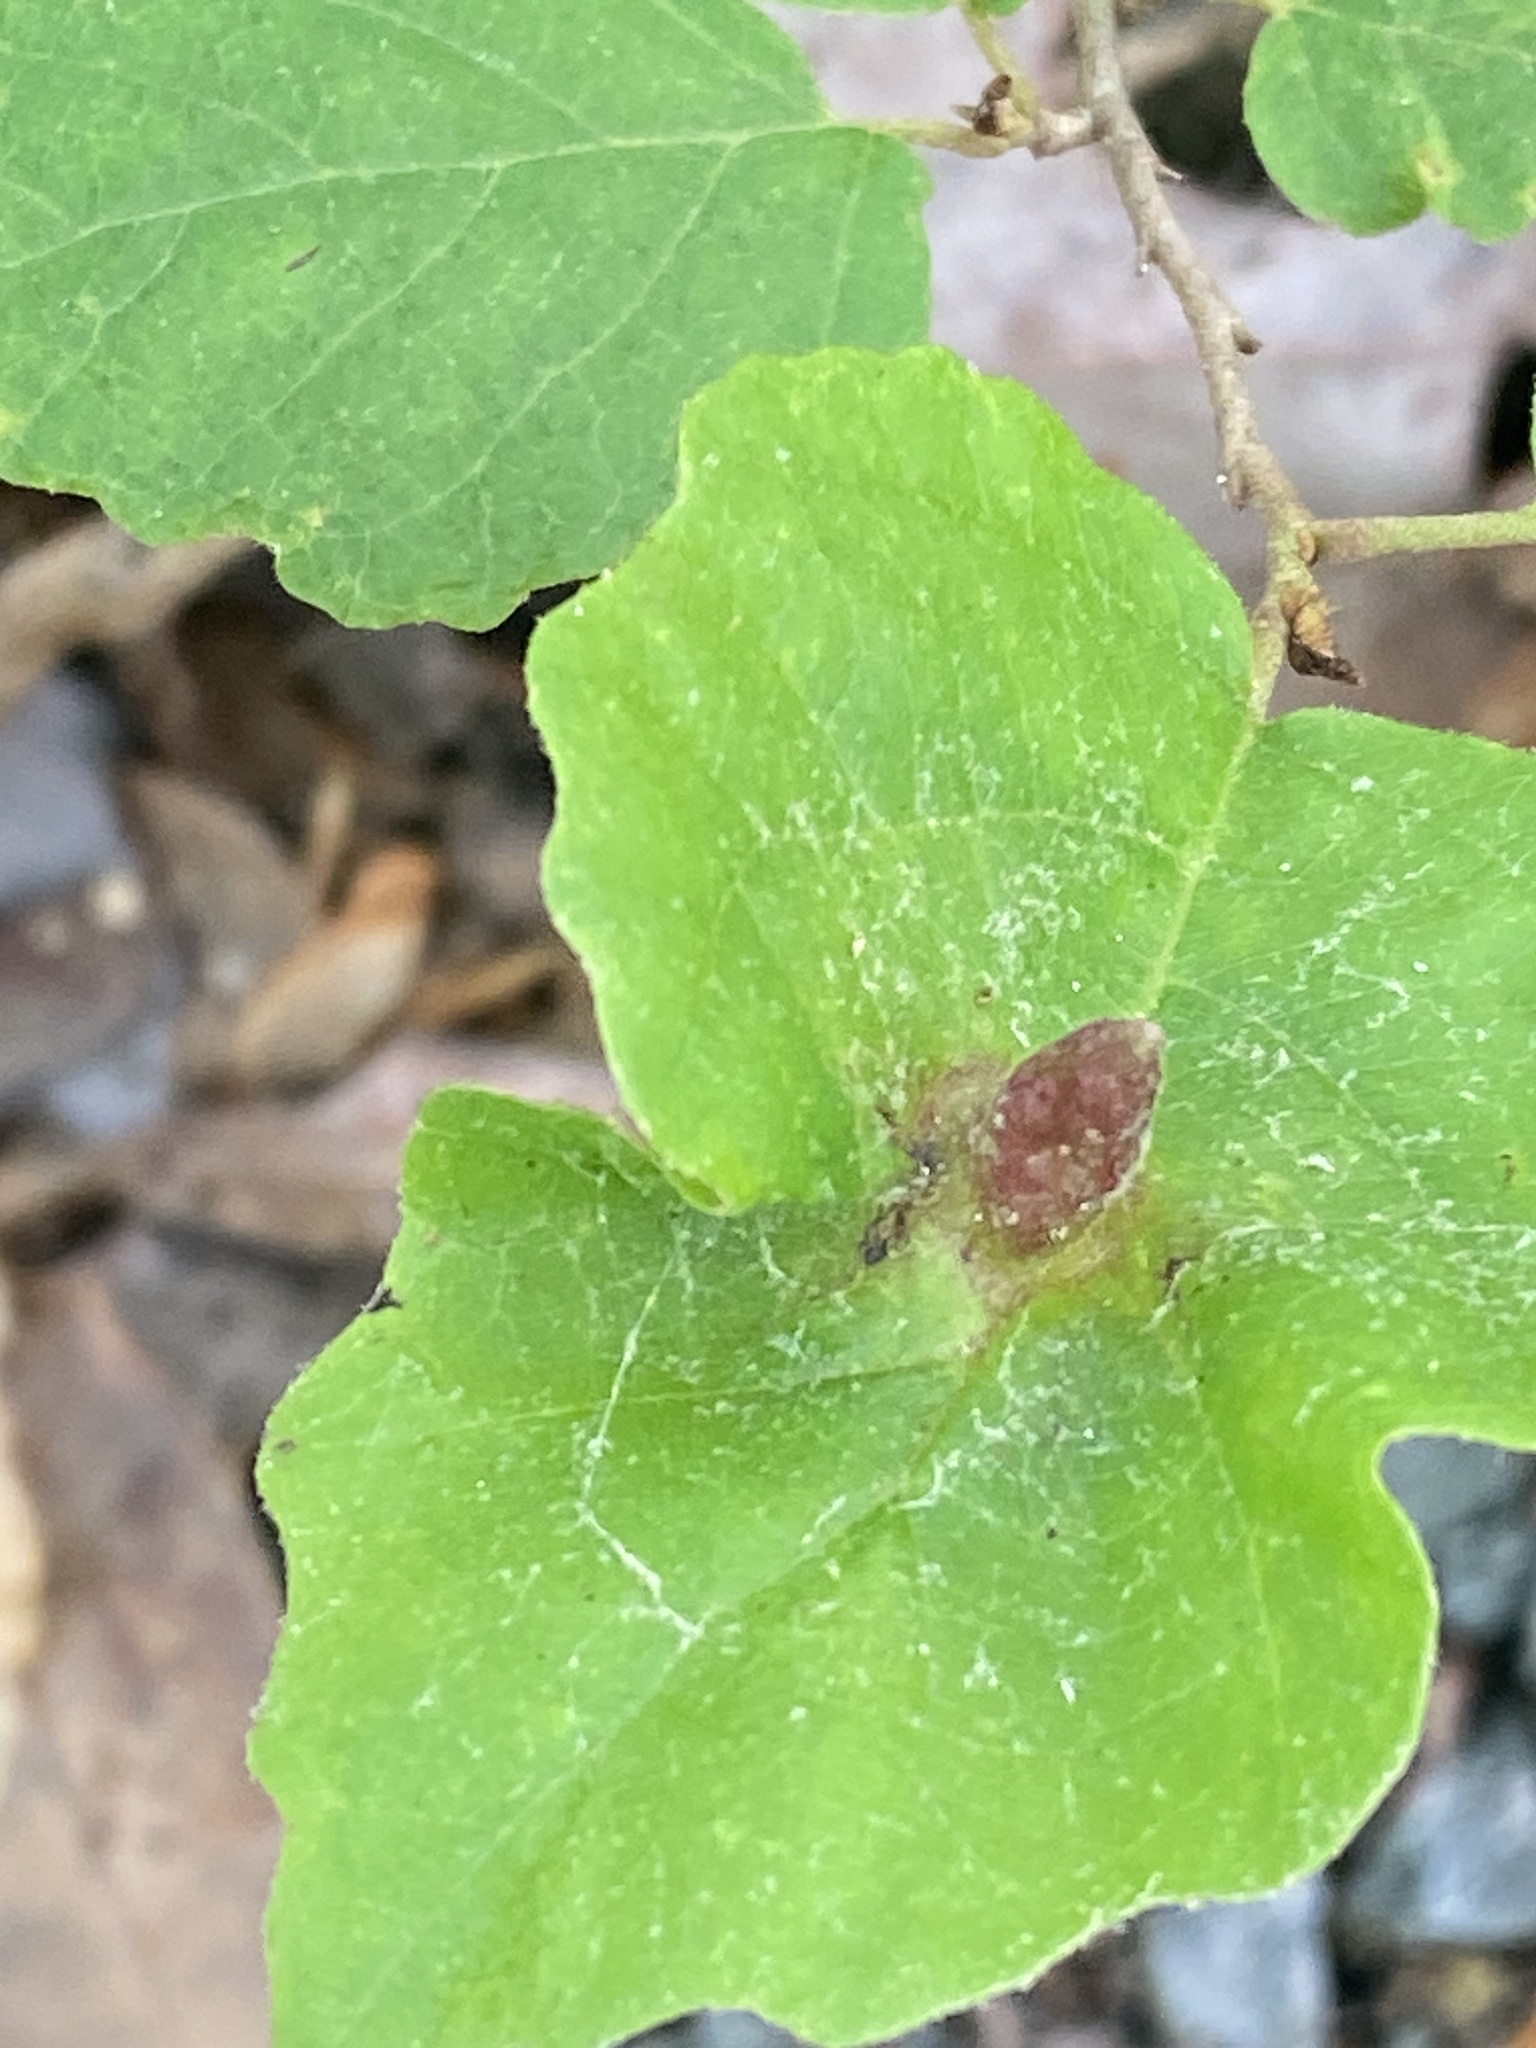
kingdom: Animalia
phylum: Arthropoda
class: Insecta
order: Hemiptera
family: Aphididae
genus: Hormaphis
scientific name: Hormaphis hamamelidis
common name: Witch-hazel cone gall aphid
